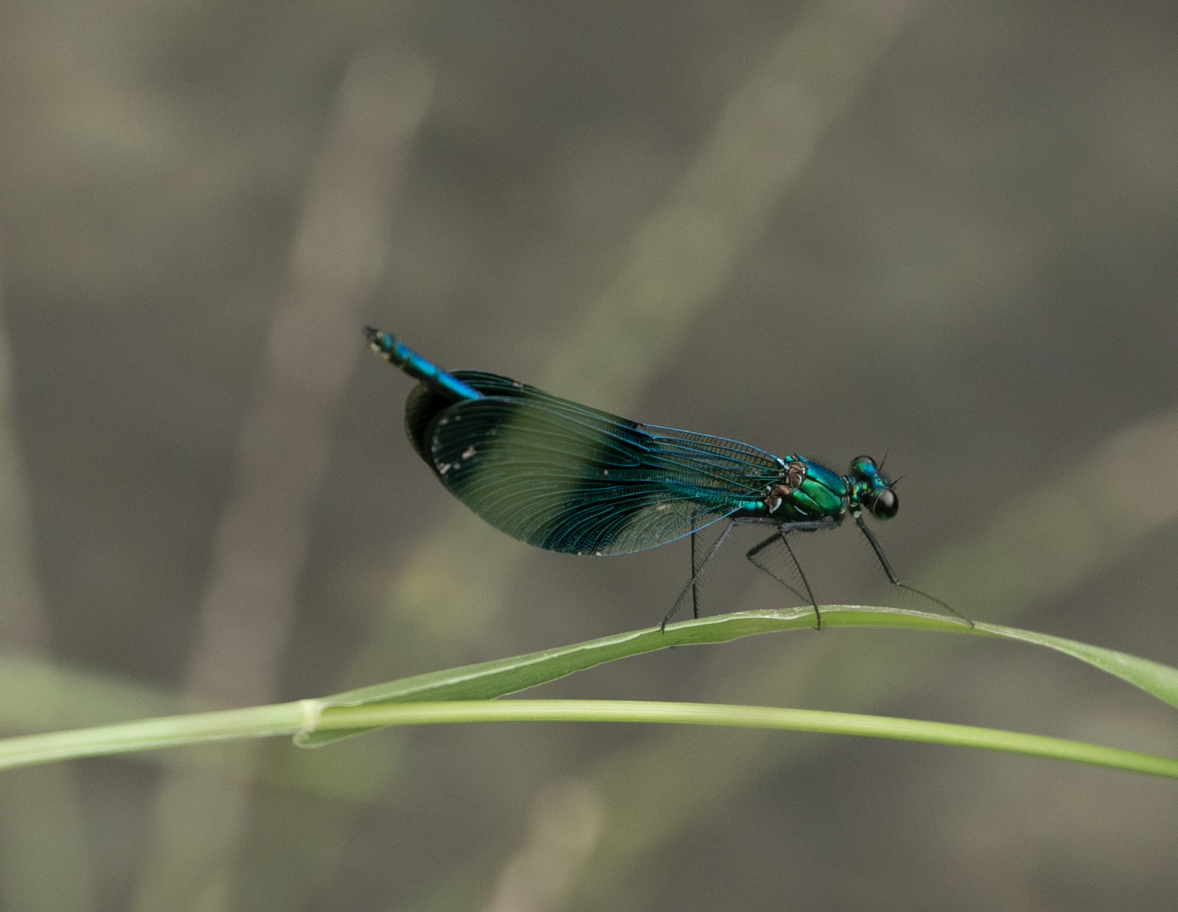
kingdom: Animalia
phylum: Arthropoda
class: Insecta
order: Odonata
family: Calopterygidae
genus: Calopteryx
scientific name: Calopteryx splendens
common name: Banded demoiselle
